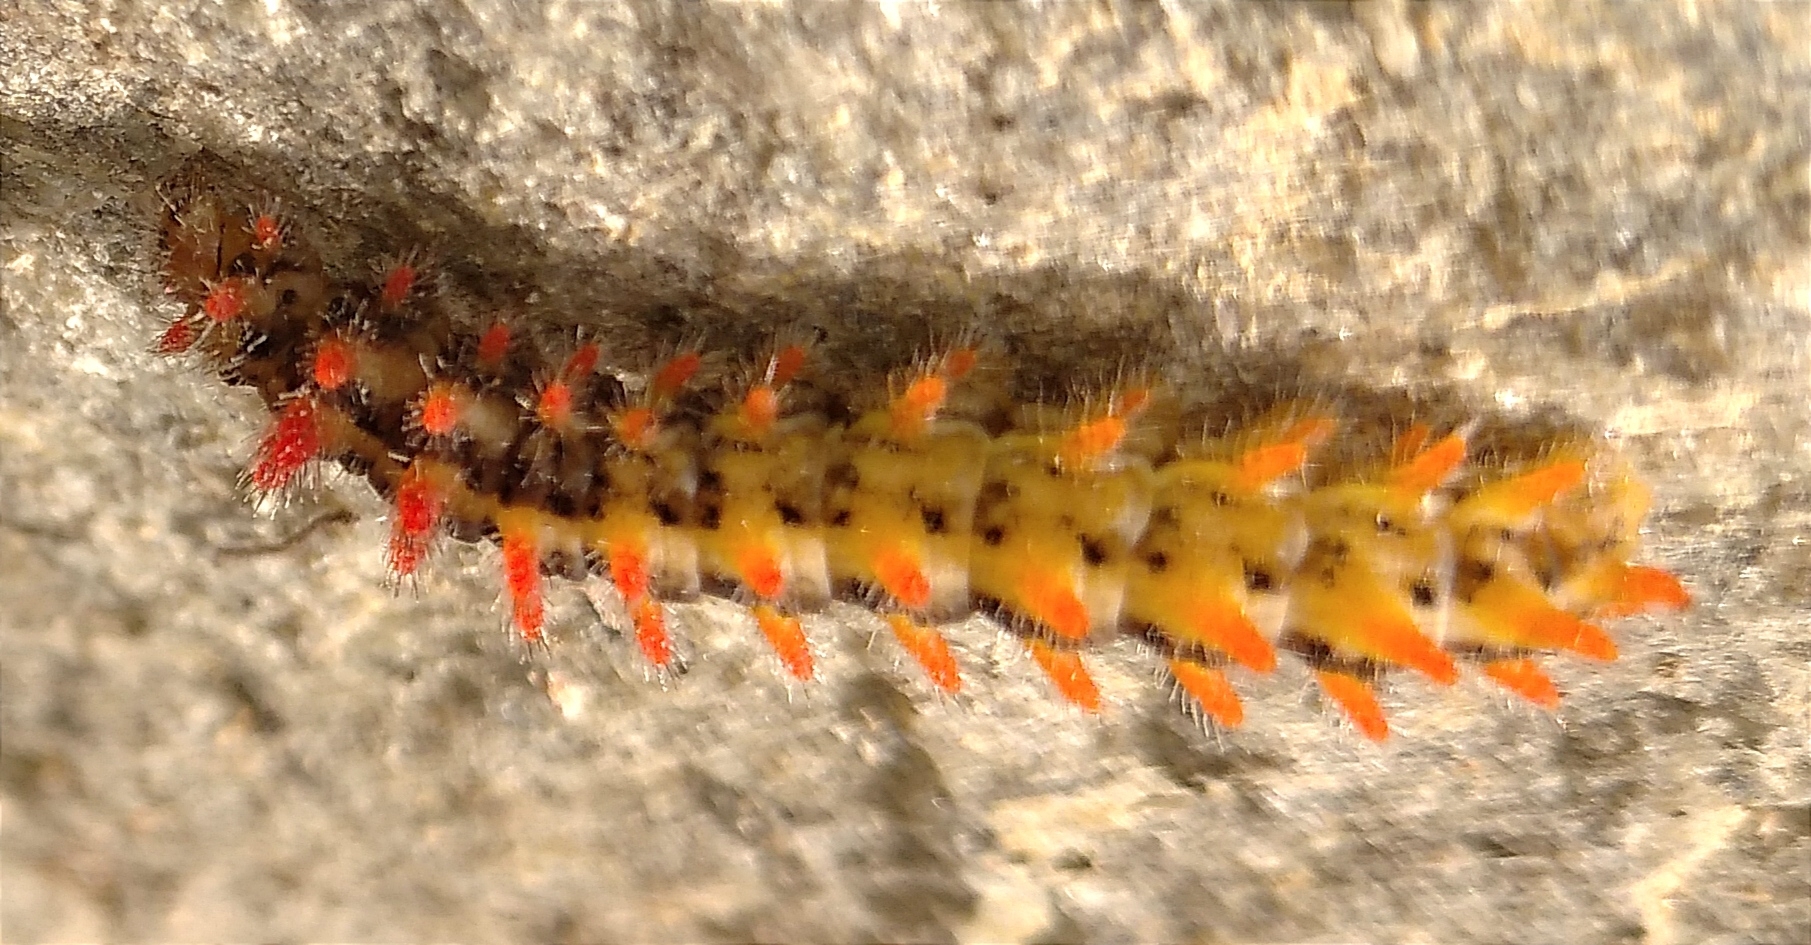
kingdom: Animalia
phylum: Arthropoda
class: Insecta
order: Lepidoptera
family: Papilionidae
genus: Zerynthia
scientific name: Zerynthia cerisy
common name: Eastern festoon
